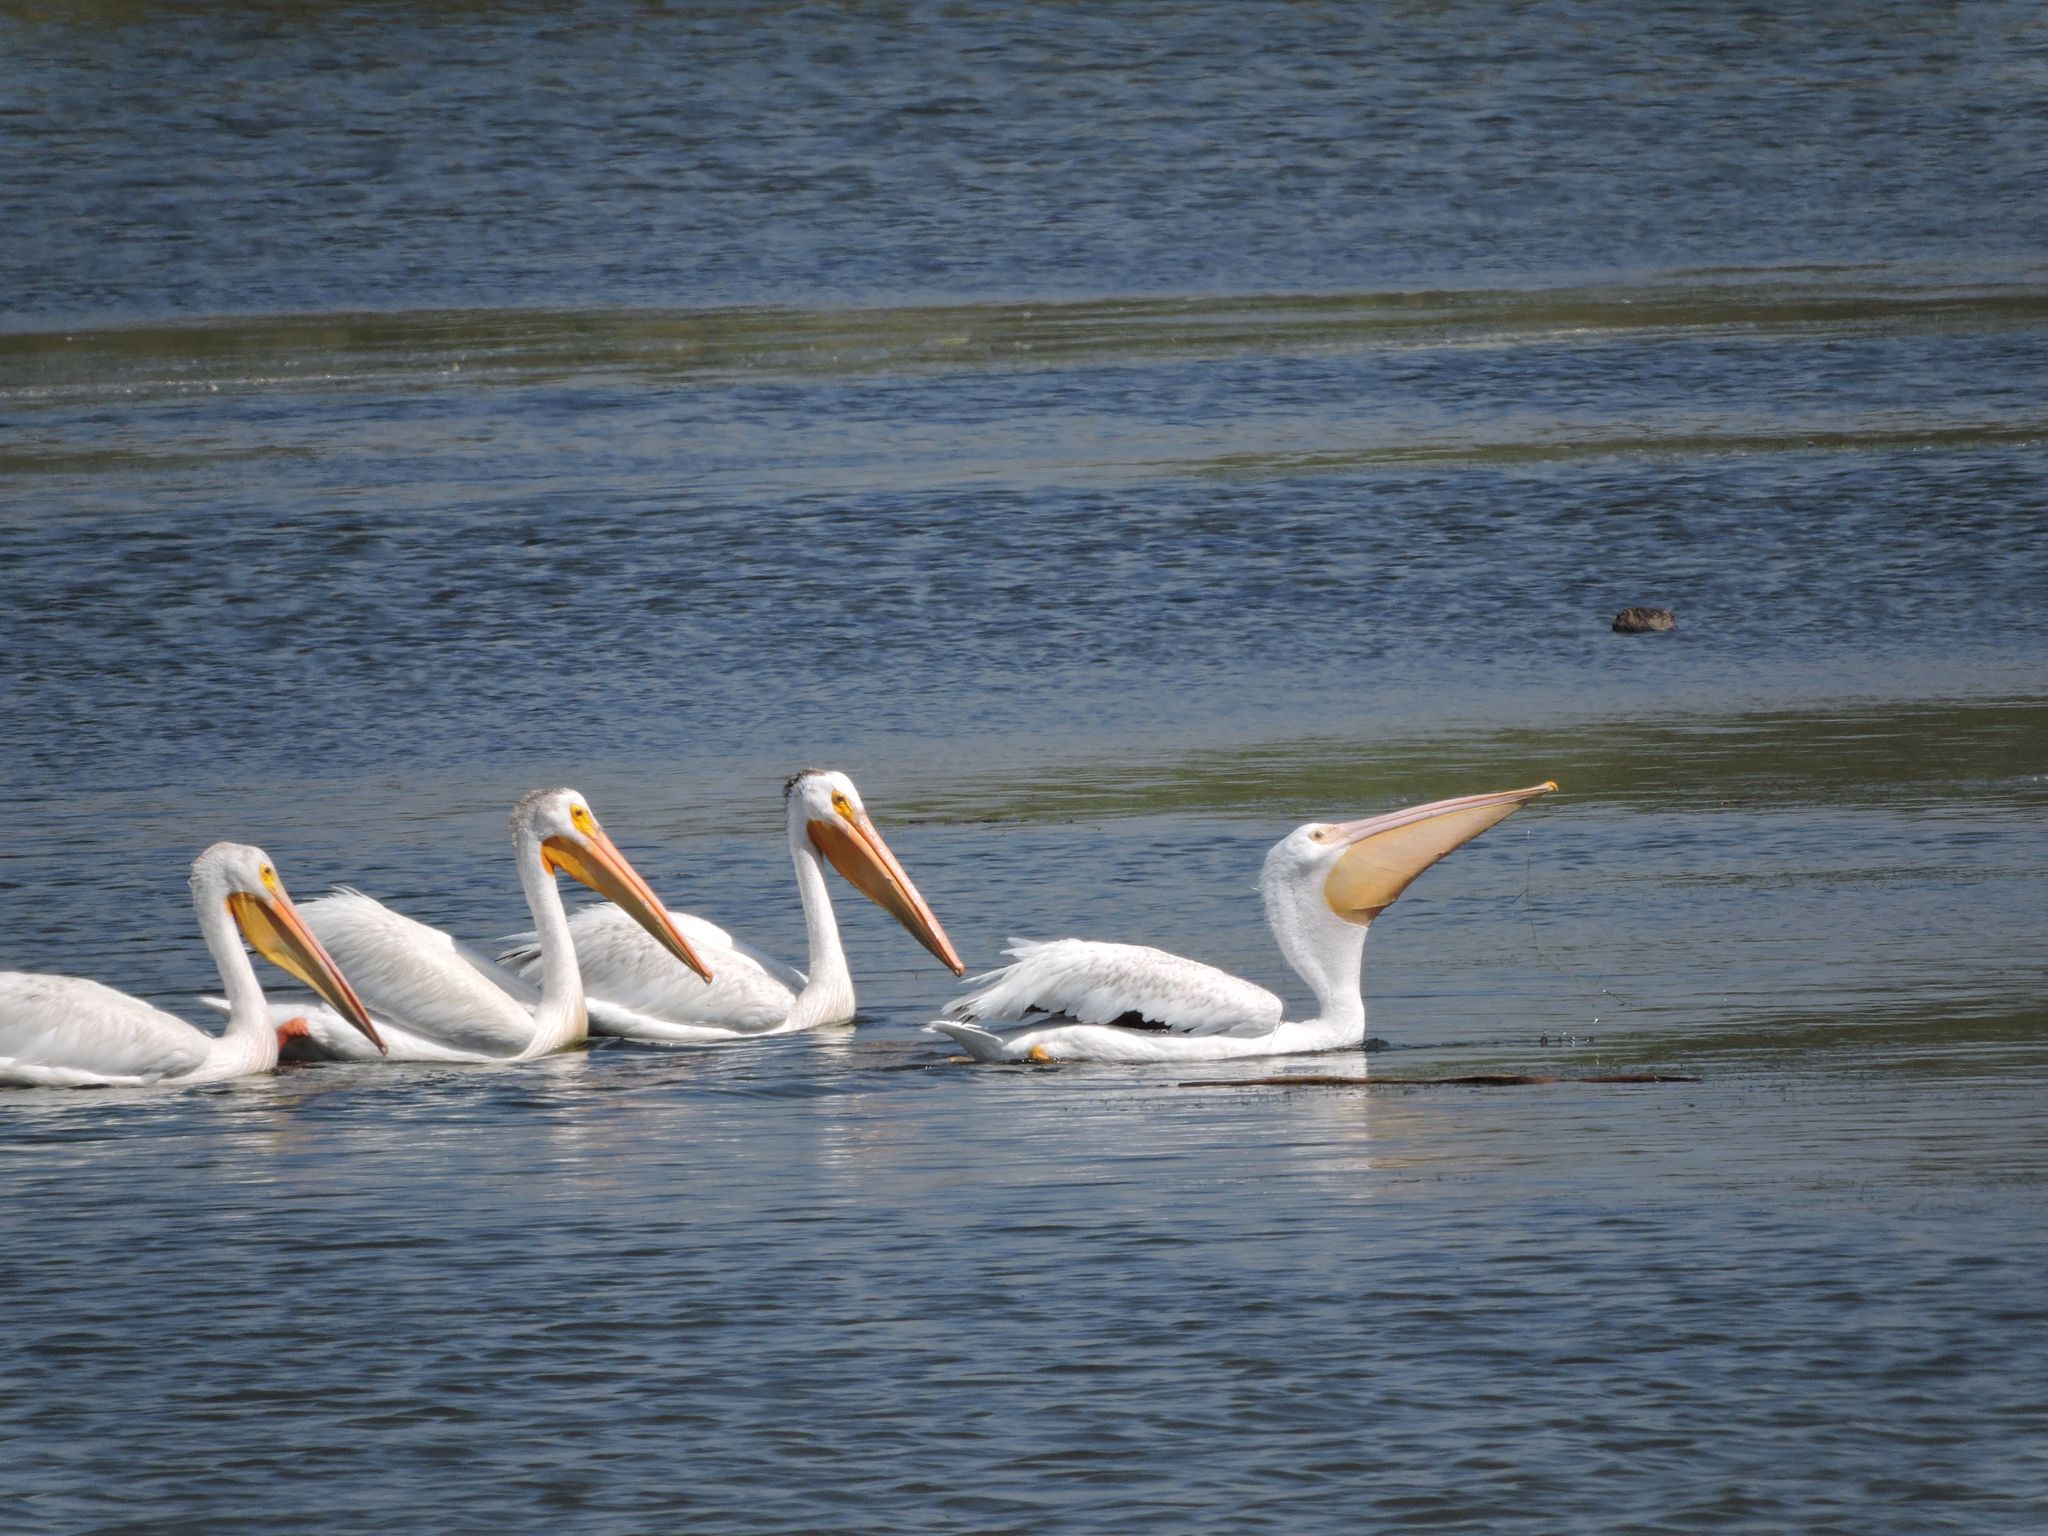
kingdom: Animalia
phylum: Chordata
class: Aves
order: Pelecaniformes
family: Pelecanidae
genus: Pelecanus
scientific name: Pelecanus erythrorhynchos
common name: American white pelican
